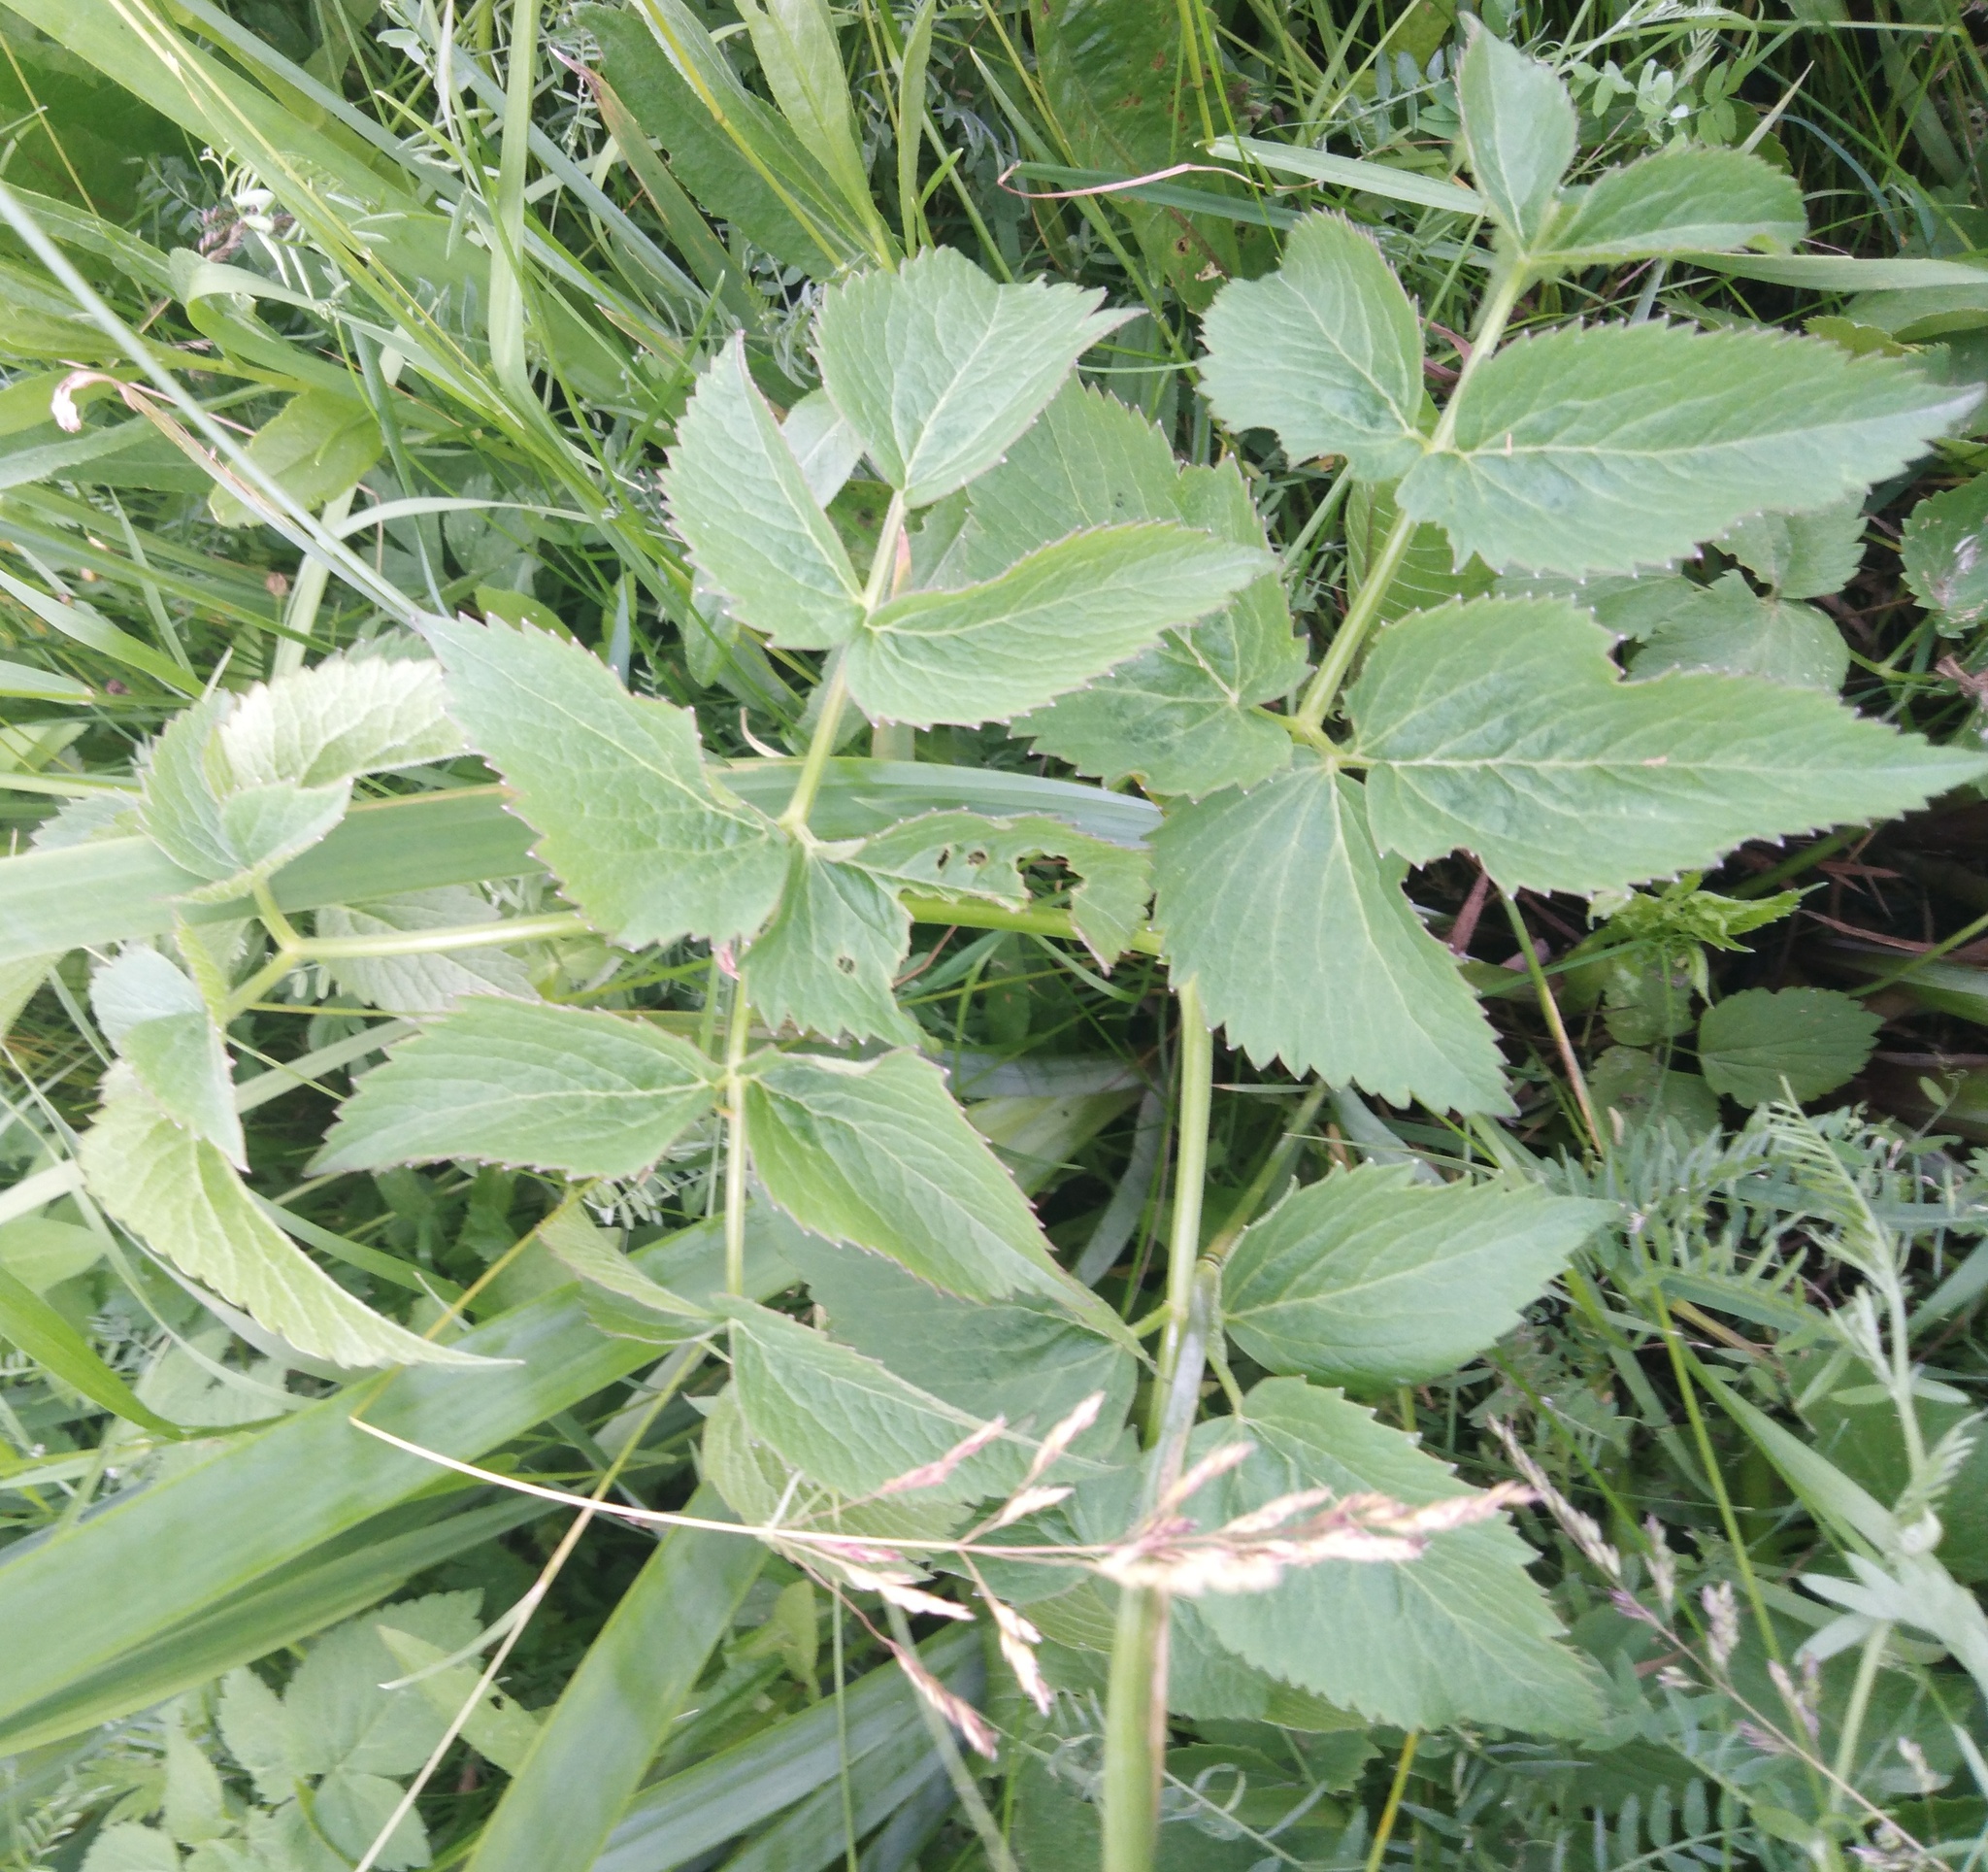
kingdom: Plantae
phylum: Tracheophyta
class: Magnoliopsida
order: Apiales
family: Apiaceae
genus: Ostericum
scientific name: Ostericum palustre
